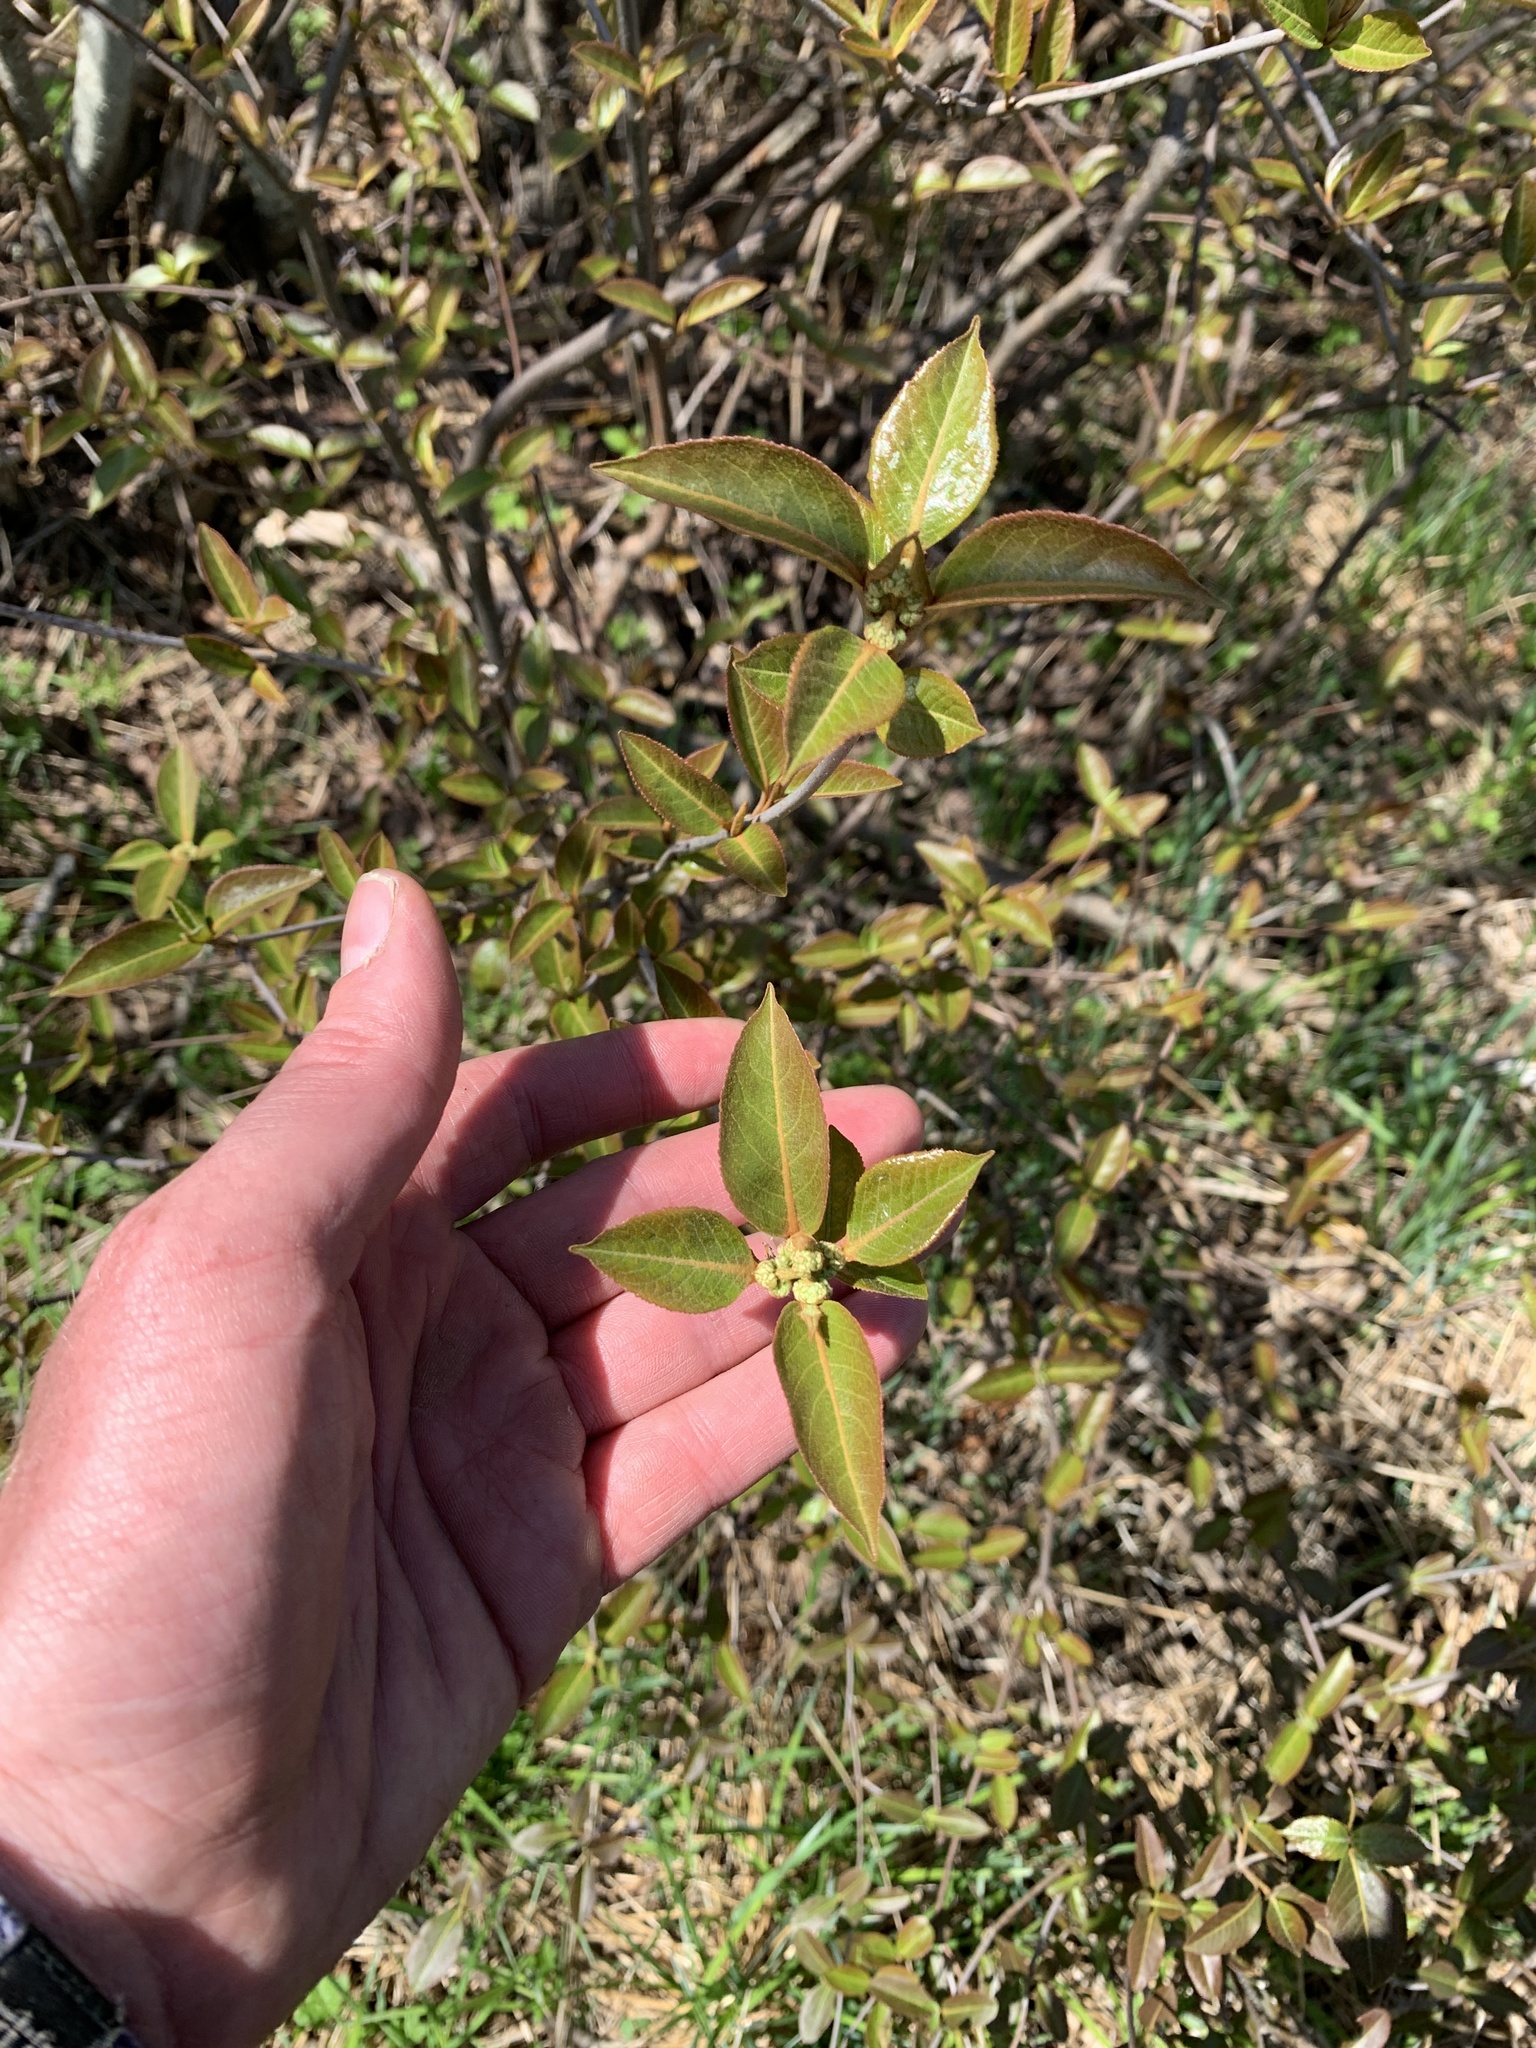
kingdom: Plantae
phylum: Tracheophyta
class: Magnoliopsida
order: Dipsacales
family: Viburnaceae
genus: Viburnum
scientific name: Viburnum cassinoides
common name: Swamp haw
